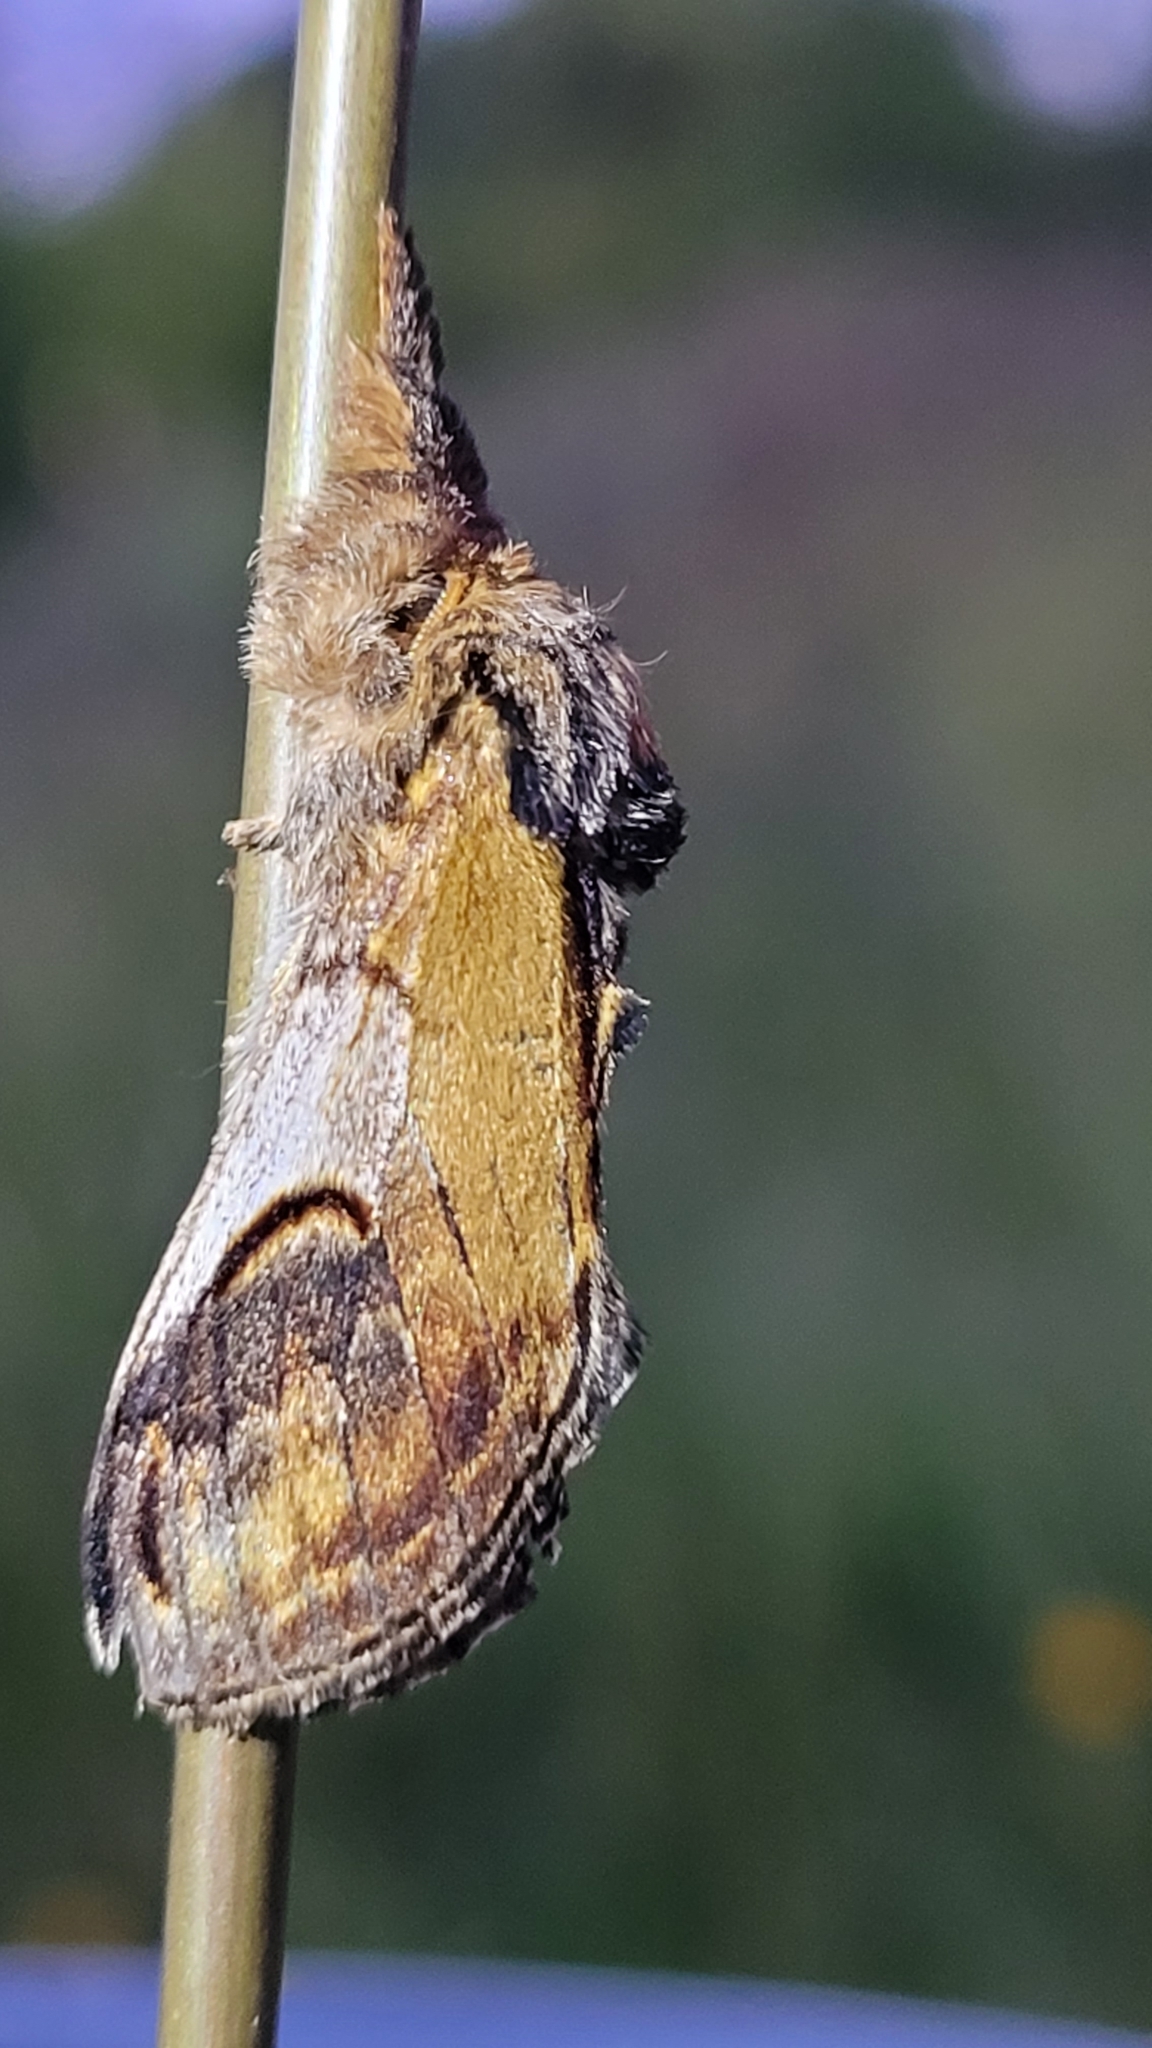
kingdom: Animalia
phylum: Arthropoda
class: Insecta
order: Lepidoptera
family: Notodontidae
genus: Notodonta
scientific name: Notodonta ziczac
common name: Pebble prominent
